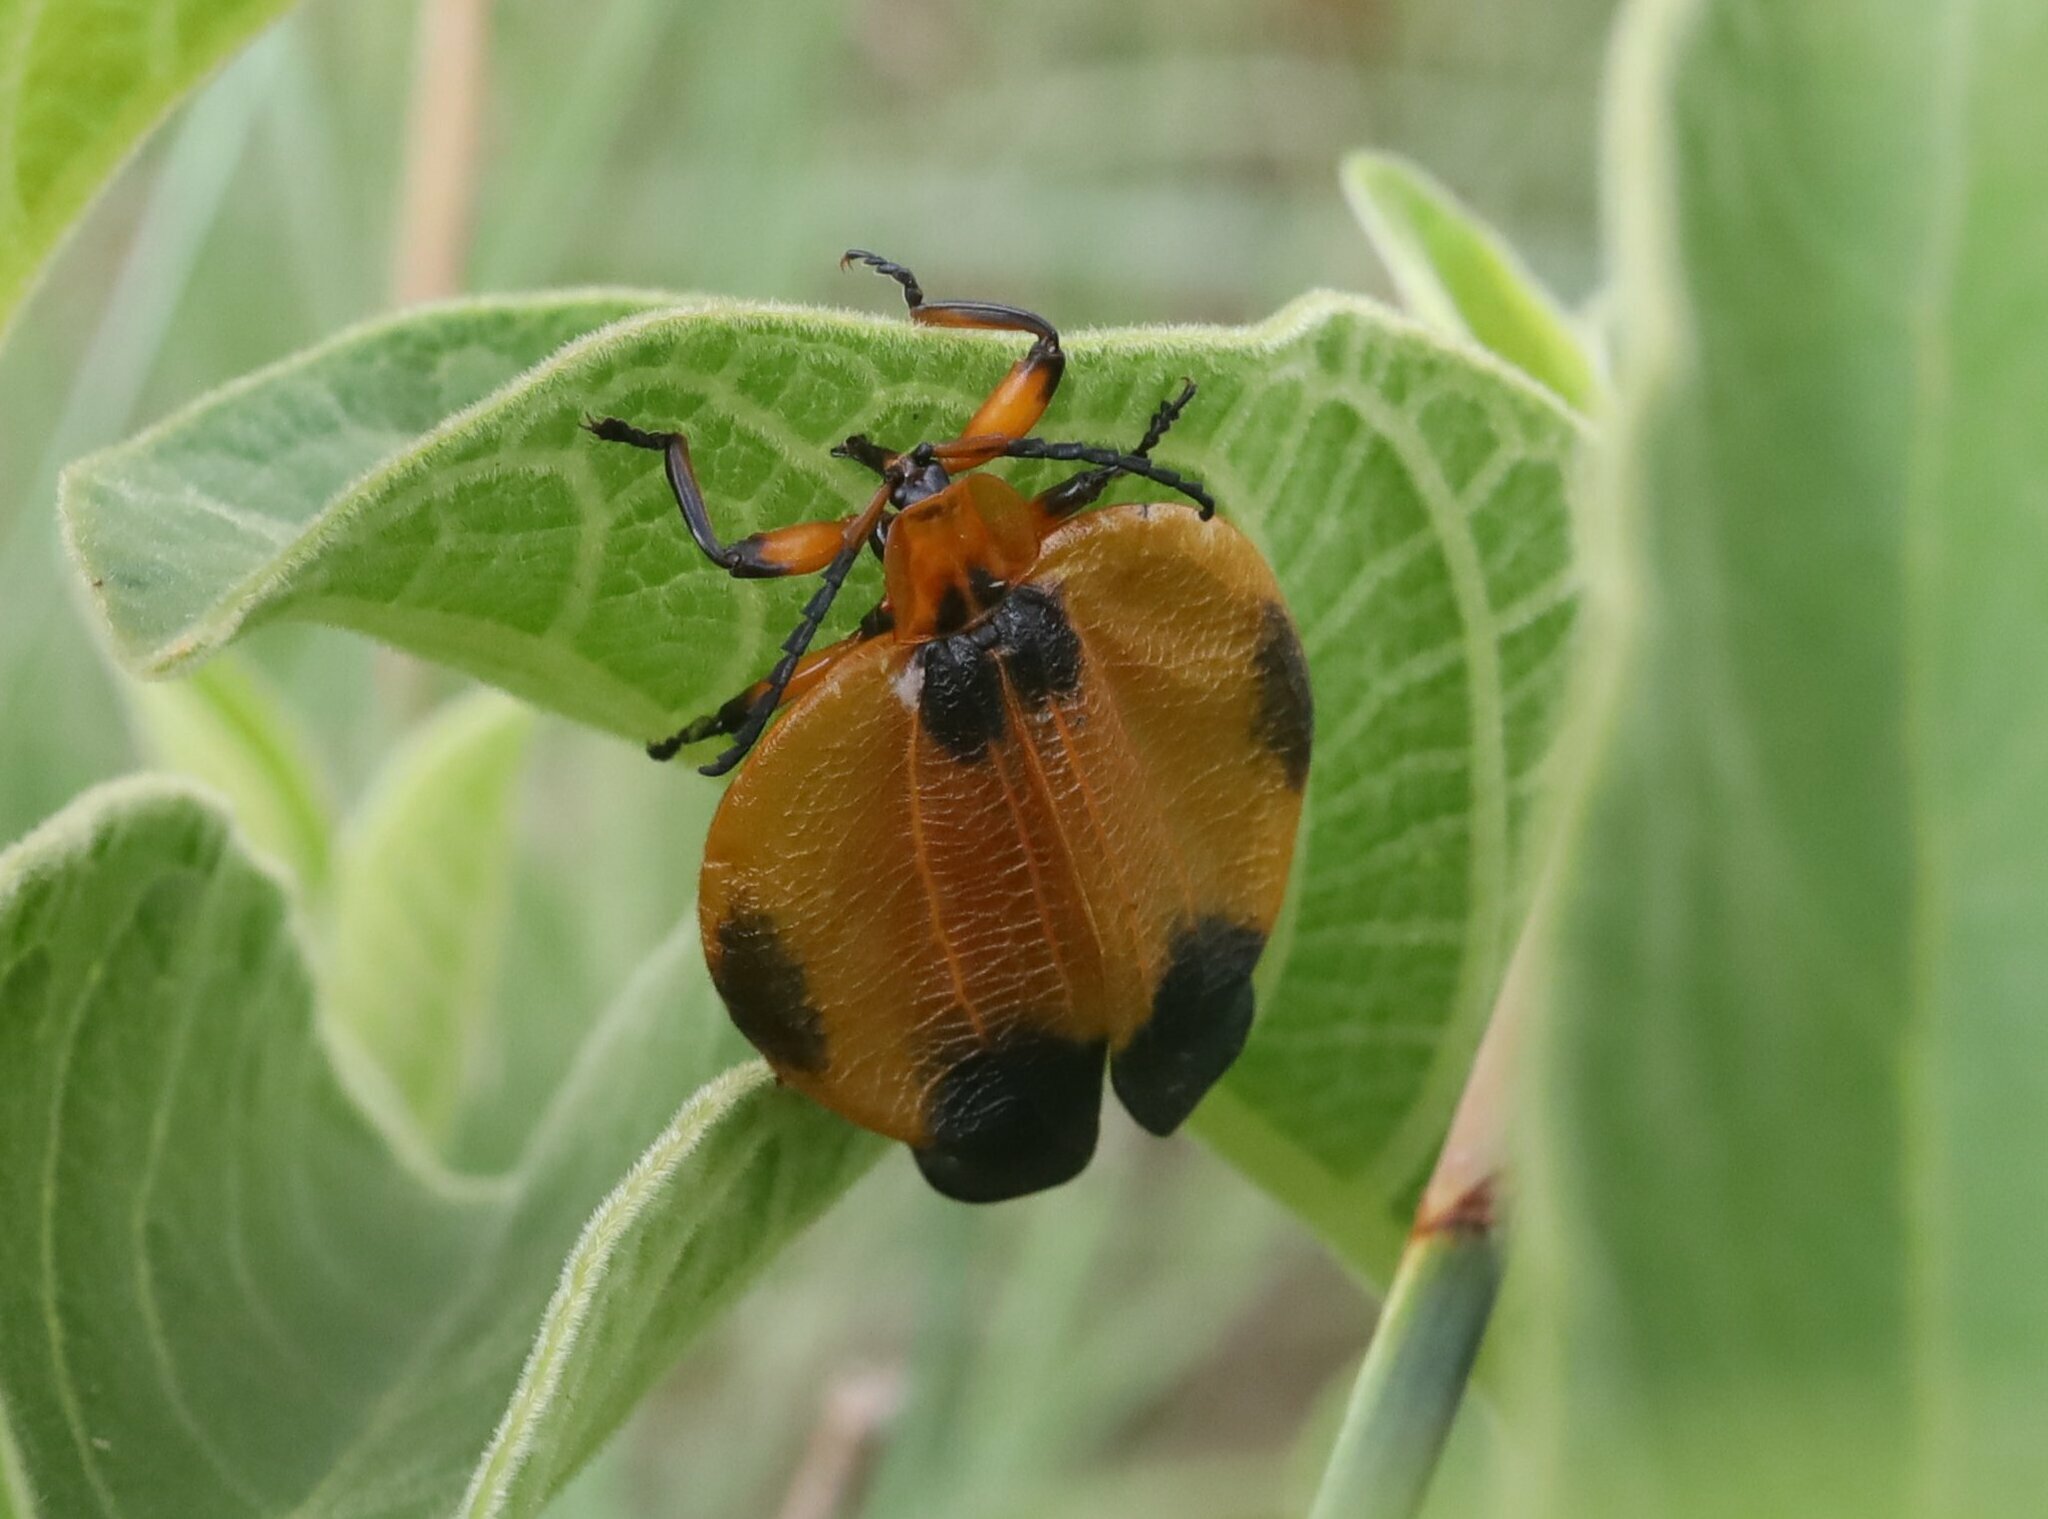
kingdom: Animalia
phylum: Arthropoda
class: Insecta
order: Coleoptera
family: Lycidae
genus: Lycus
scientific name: Lycus
